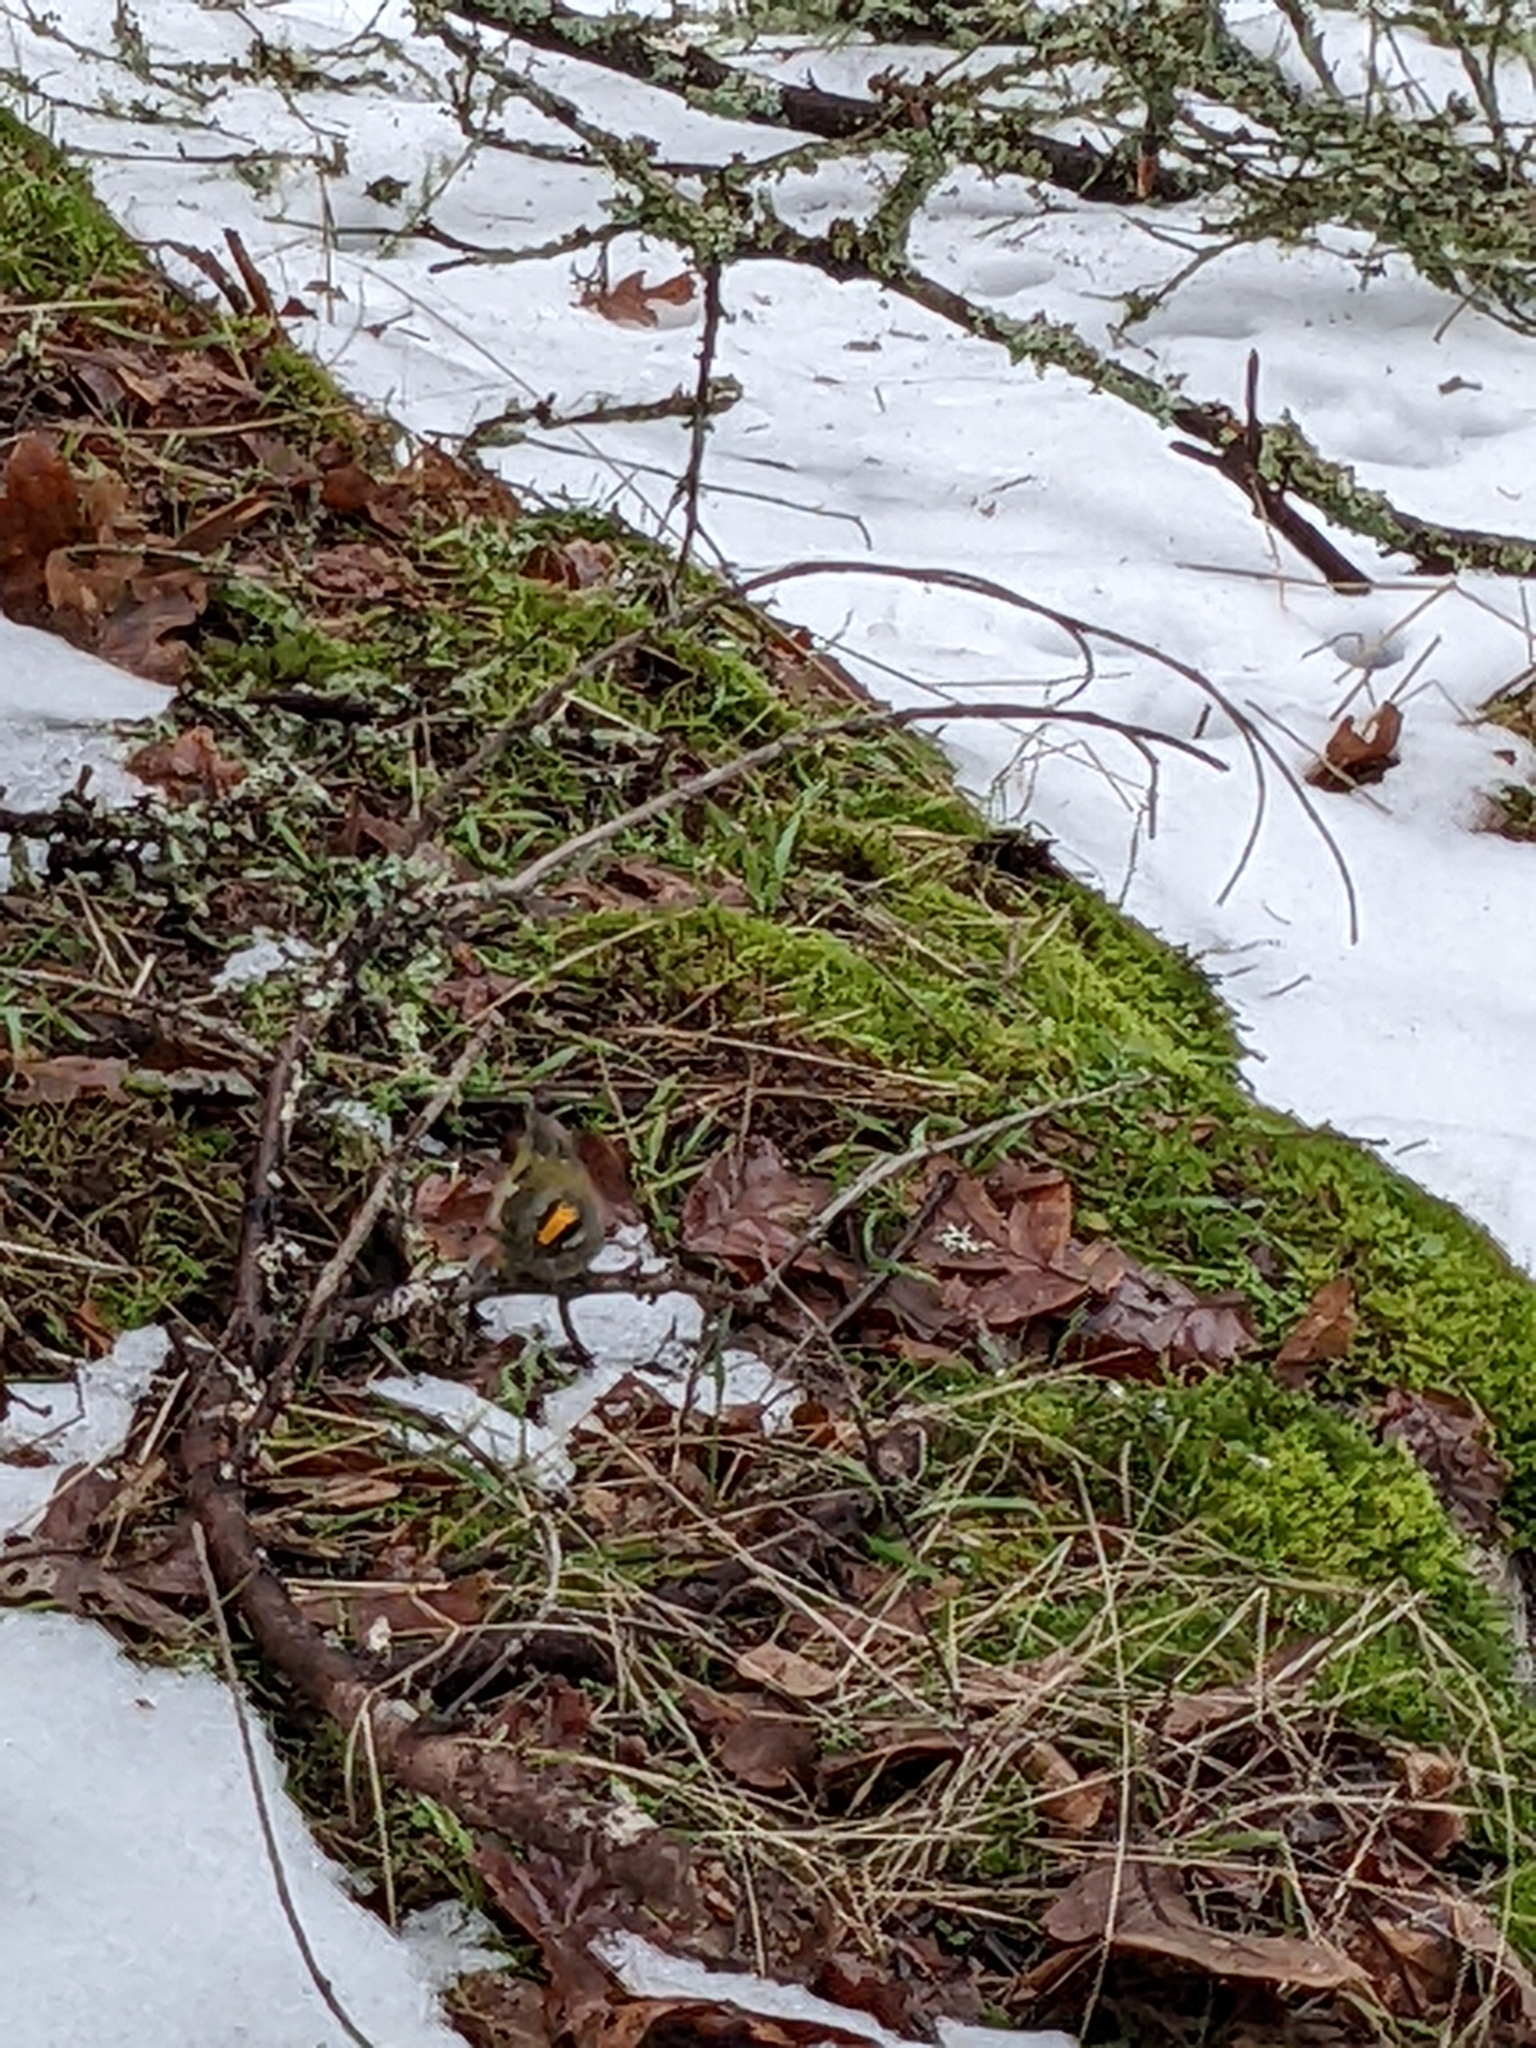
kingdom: Animalia
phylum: Chordata
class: Aves
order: Passeriformes
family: Regulidae
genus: Regulus
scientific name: Regulus satrapa
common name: Golden-crowned kinglet
